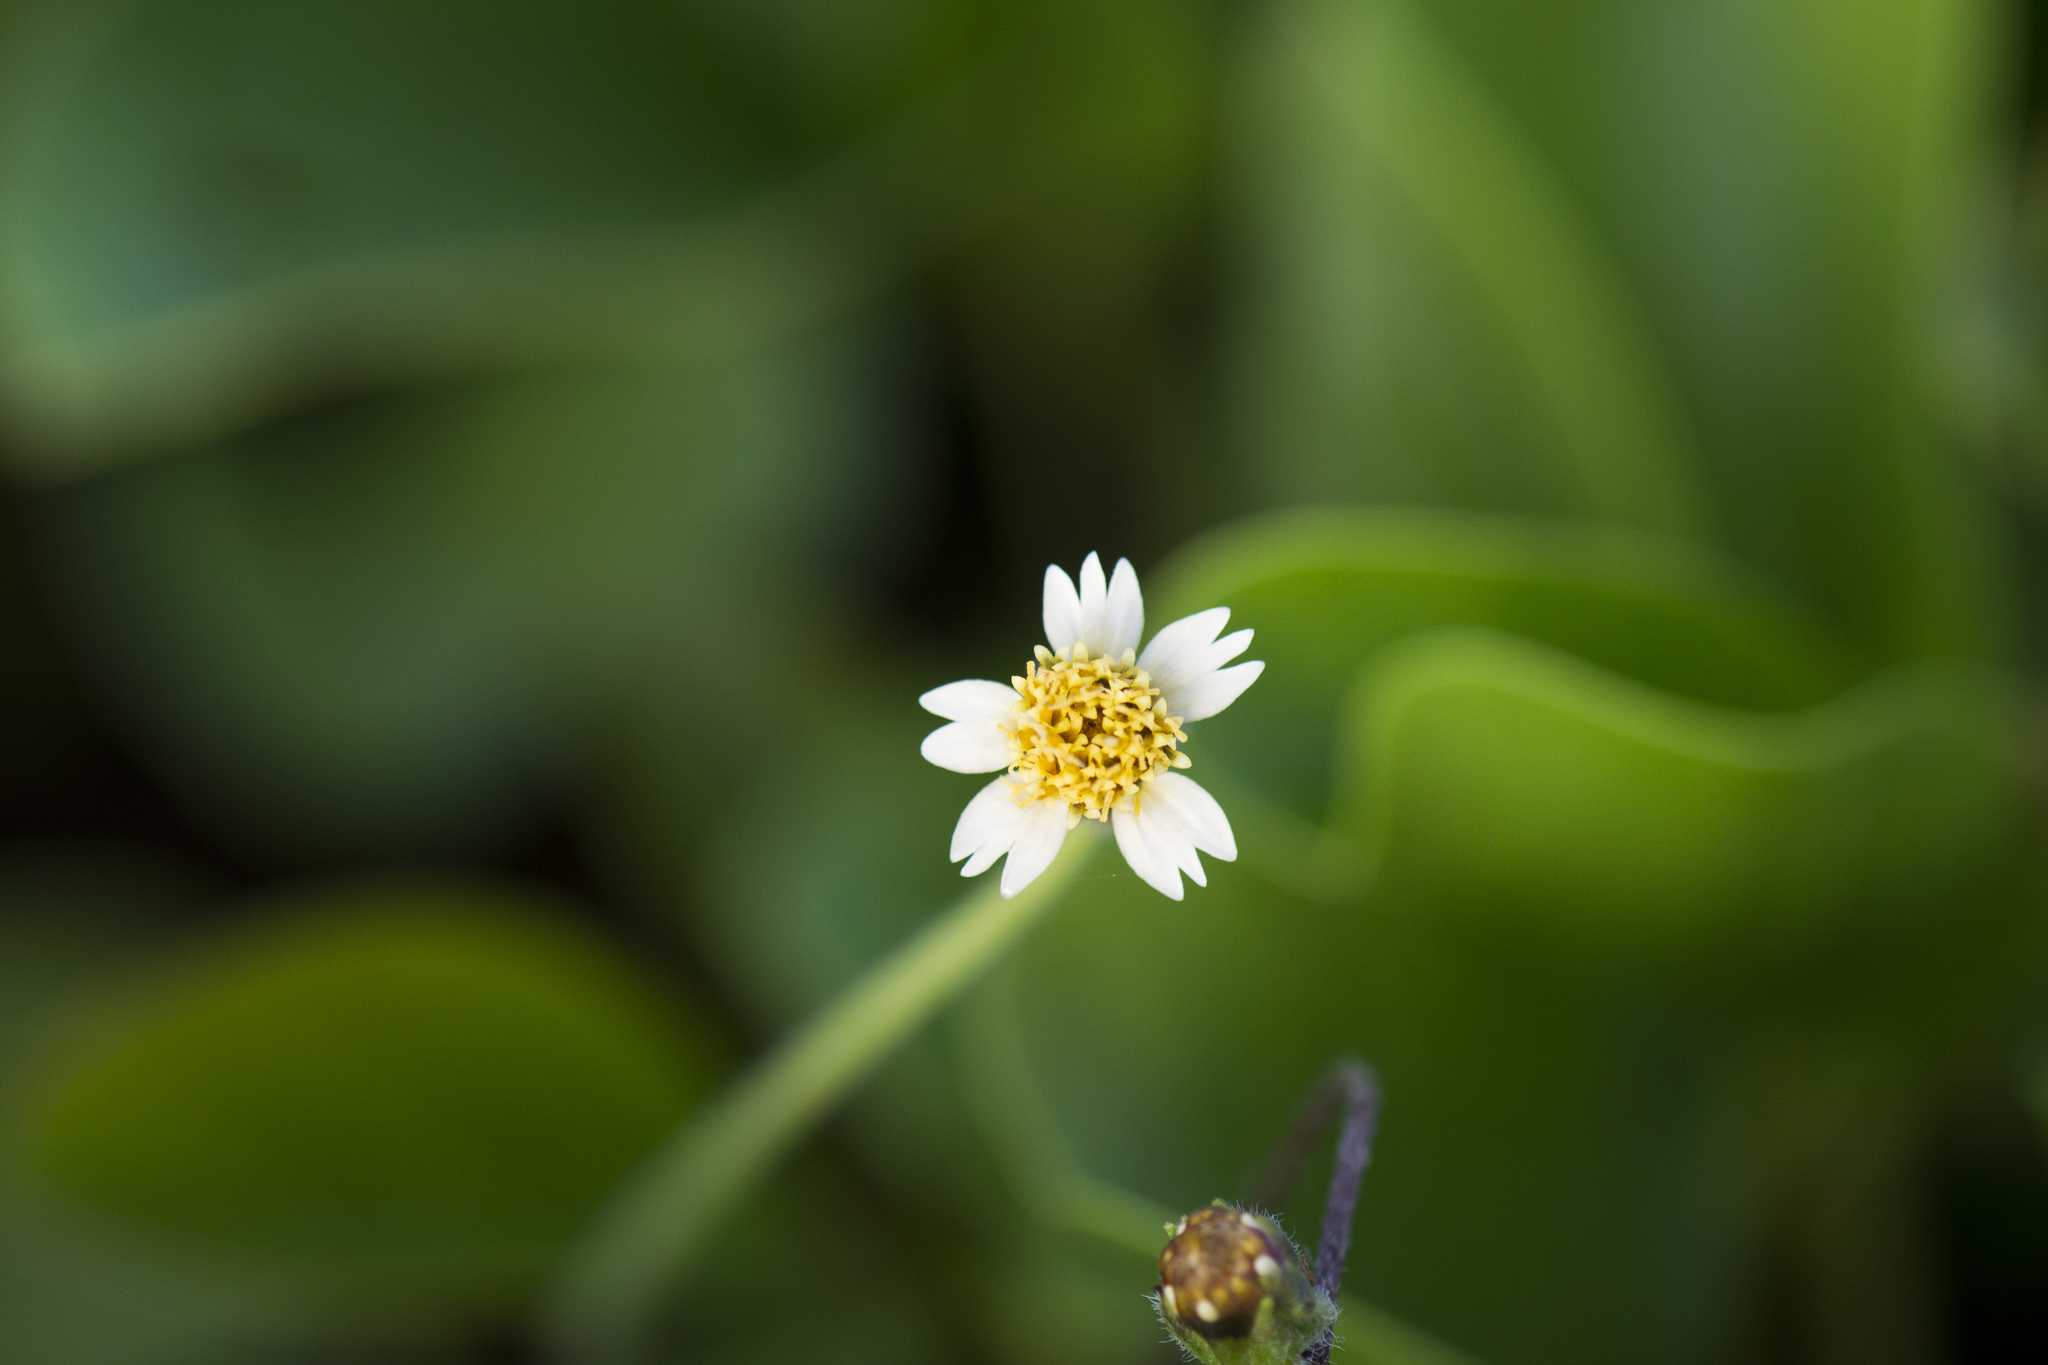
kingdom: Plantae
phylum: Tracheophyta
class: Magnoliopsida
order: Asterales
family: Asteraceae
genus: Tridax
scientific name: Tridax procumbens
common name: Coatbuttons
